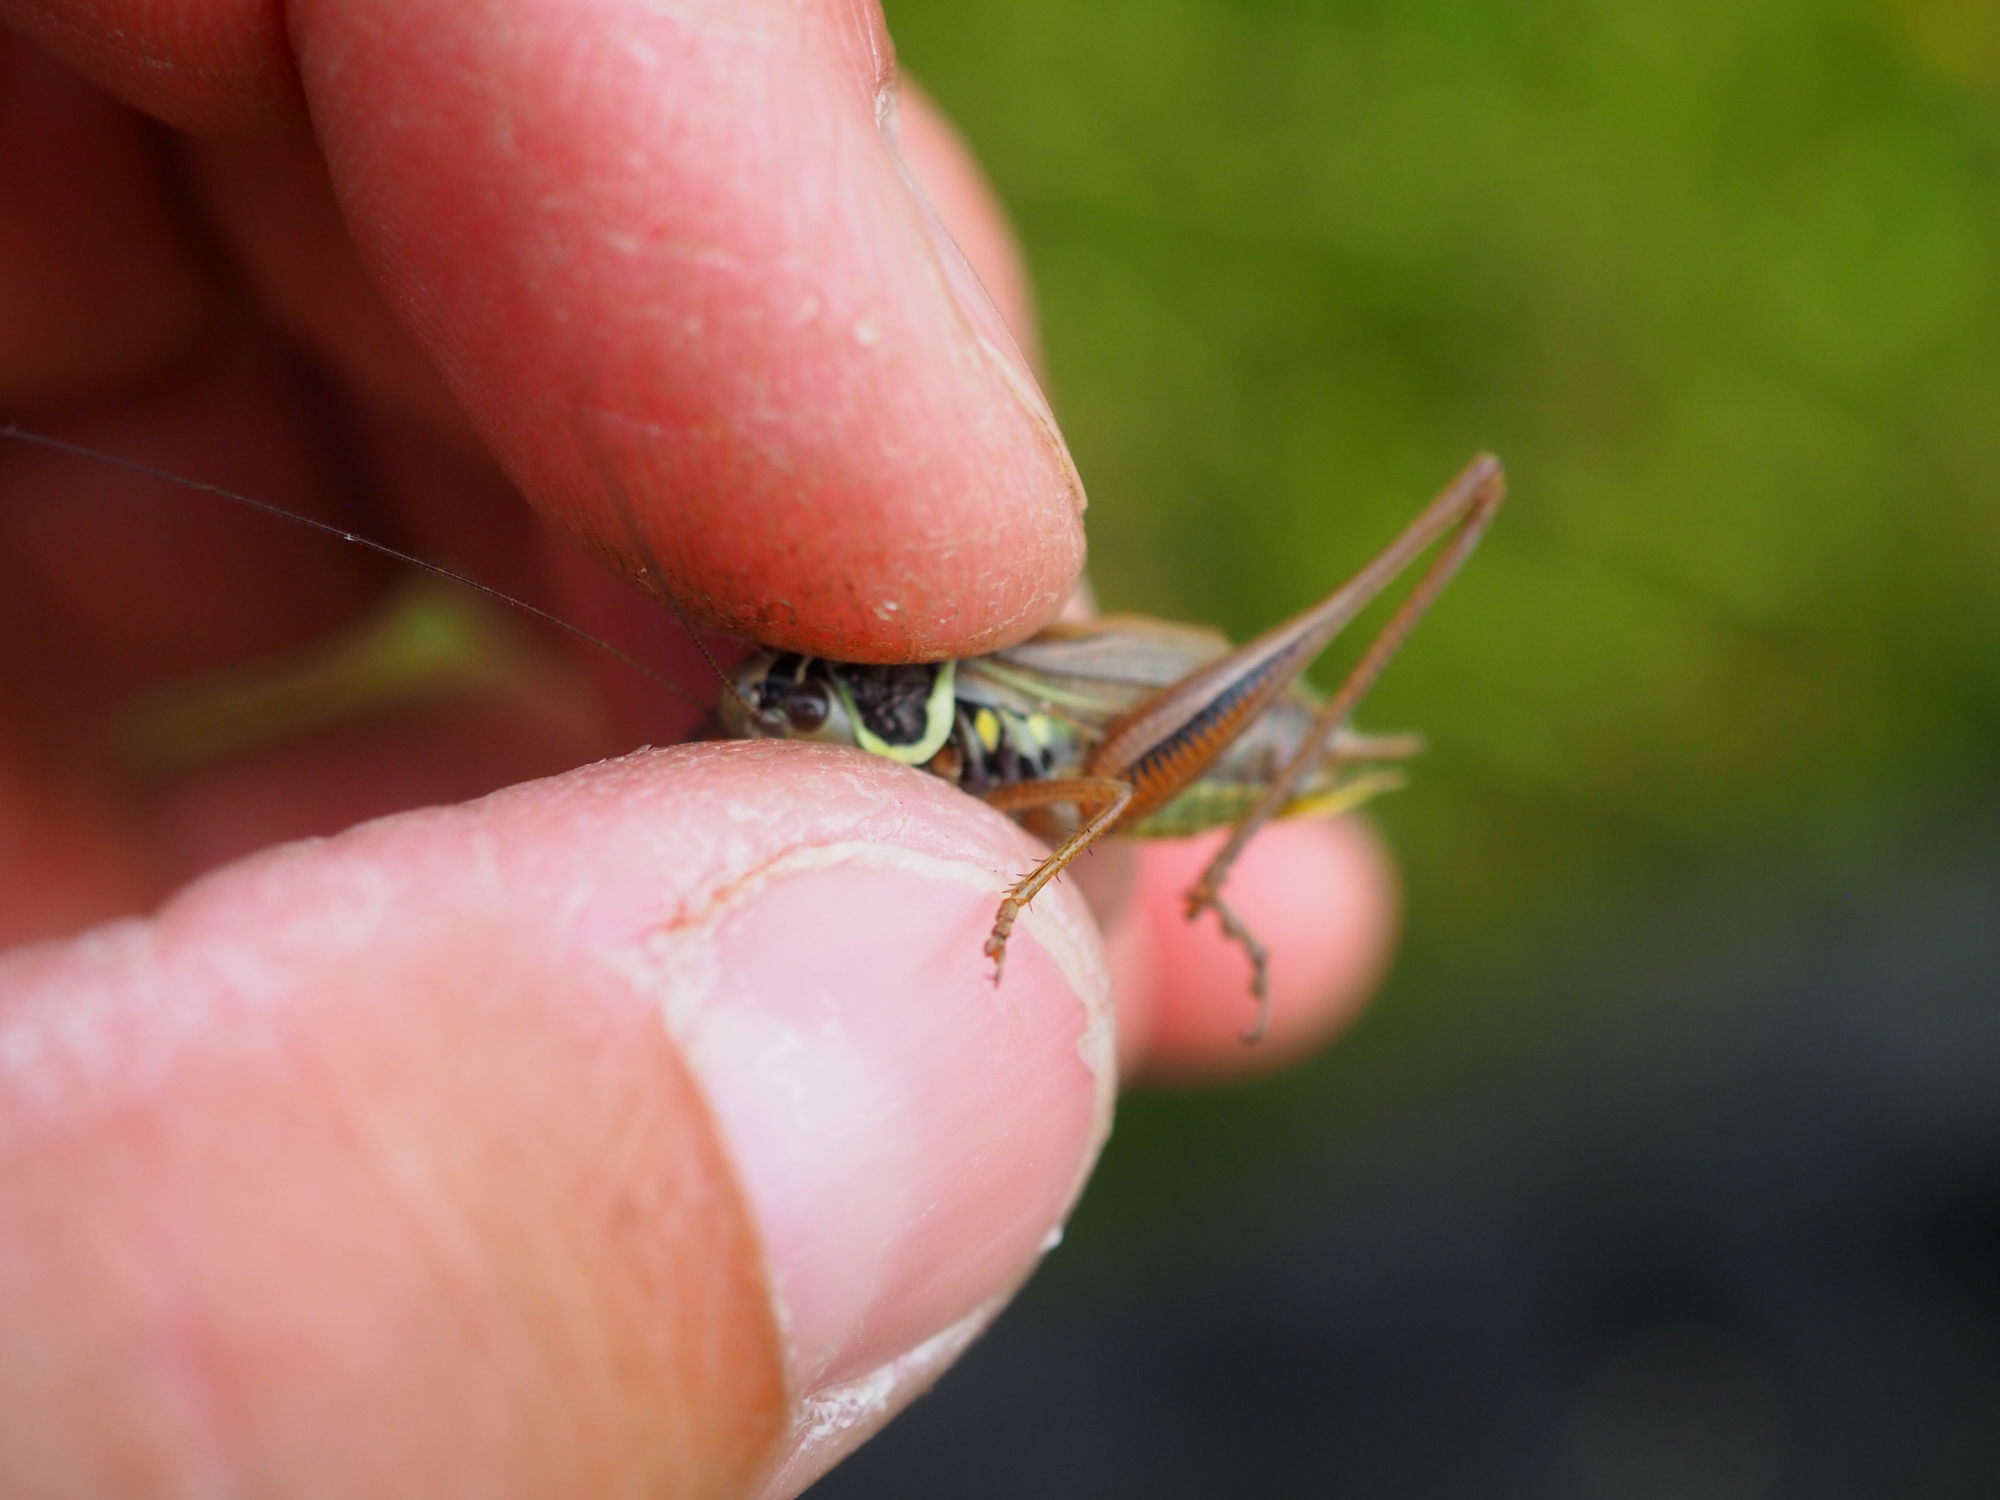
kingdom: Animalia
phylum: Arthropoda
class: Insecta
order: Orthoptera
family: Tettigoniidae
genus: Roeseliana
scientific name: Roeseliana roeselii
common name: Roesel's bush cricket
